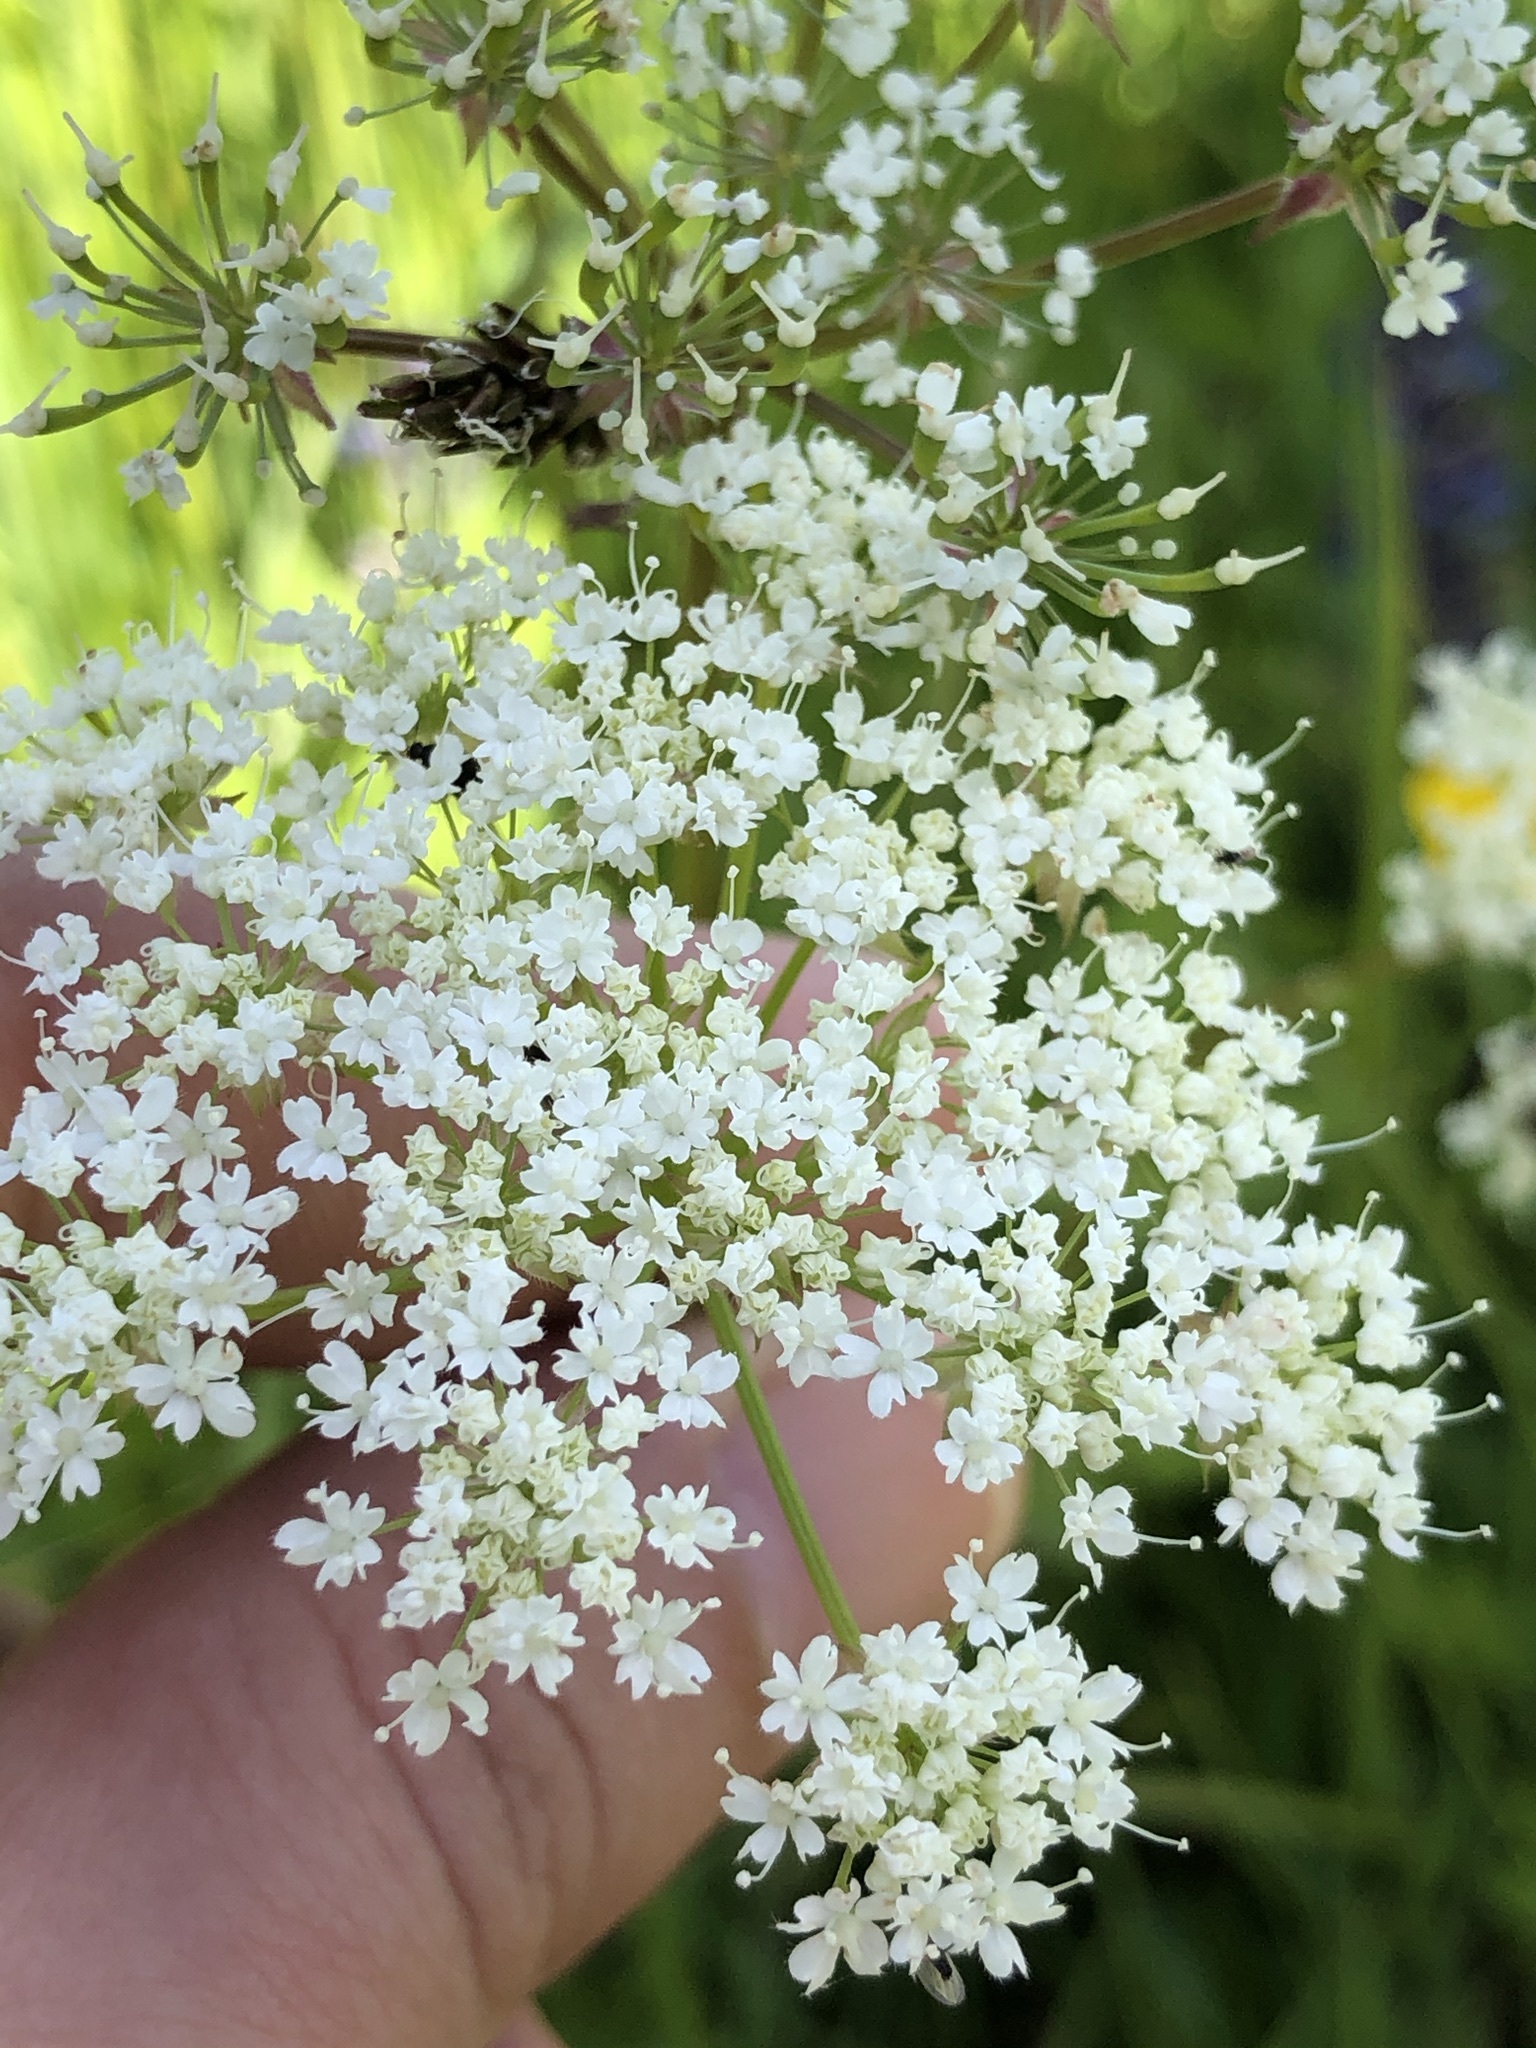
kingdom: Plantae
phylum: Tracheophyta
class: Magnoliopsida
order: Apiales
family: Apiaceae
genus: Chaerophyllum
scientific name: Chaerophyllum hirsutum
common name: Hairy chervil
